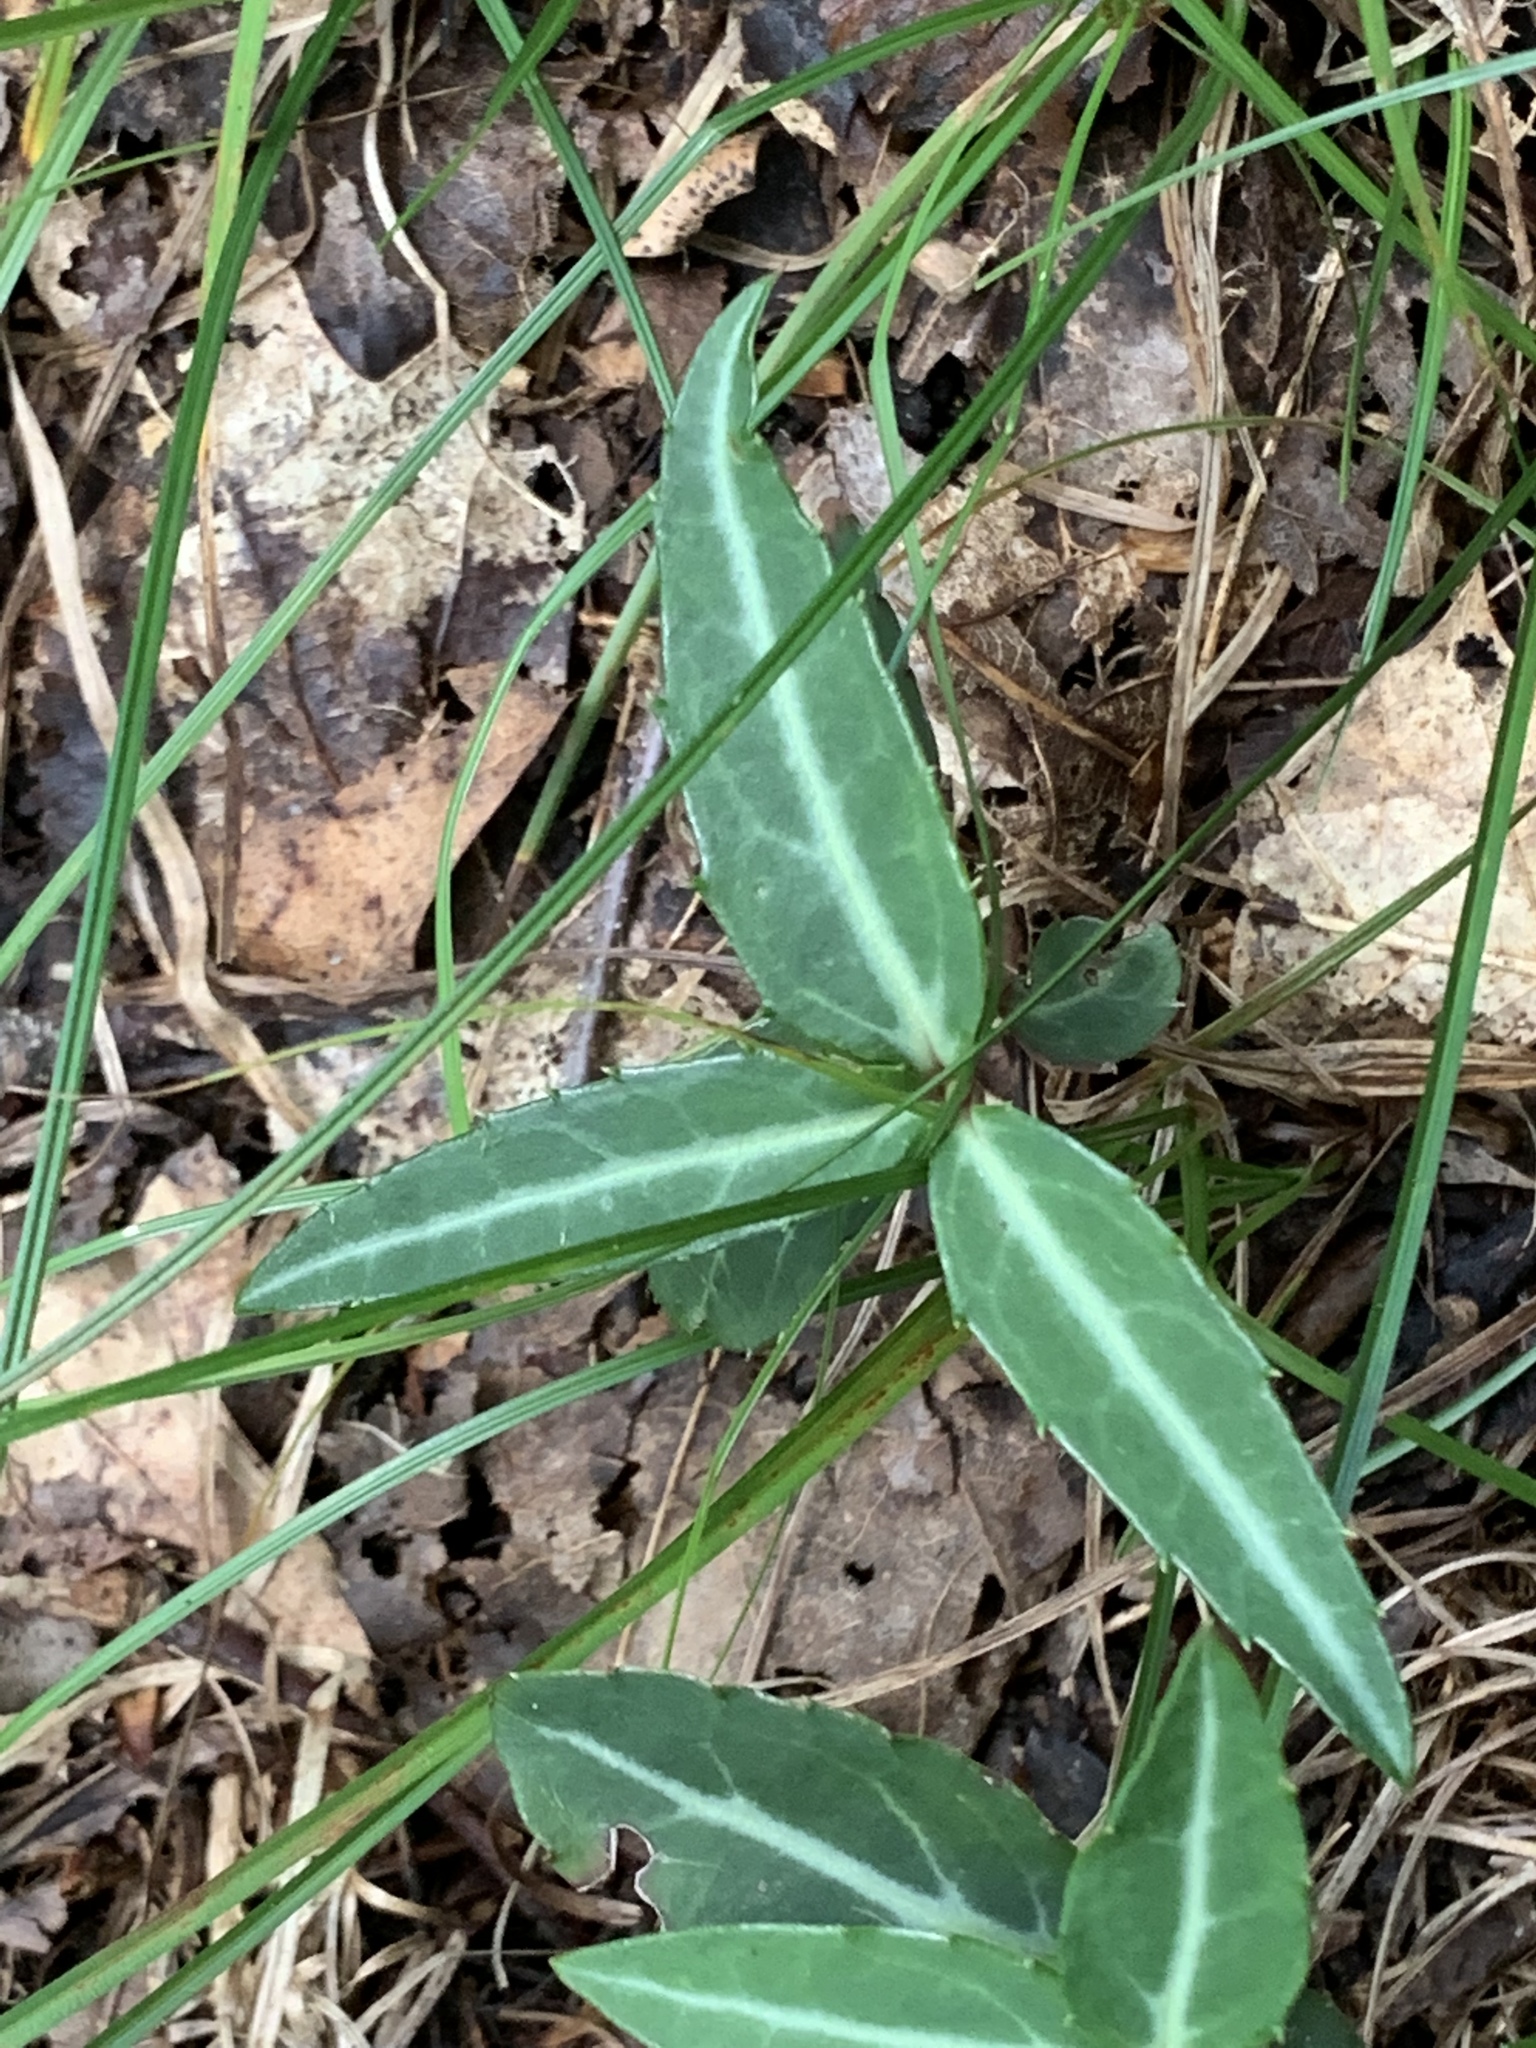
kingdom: Plantae
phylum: Tracheophyta
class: Magnoliopsida
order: Ericales
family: Ericaceae
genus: Chimaphila
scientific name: Chimaphila maculata
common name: Spotted pipsissewa
